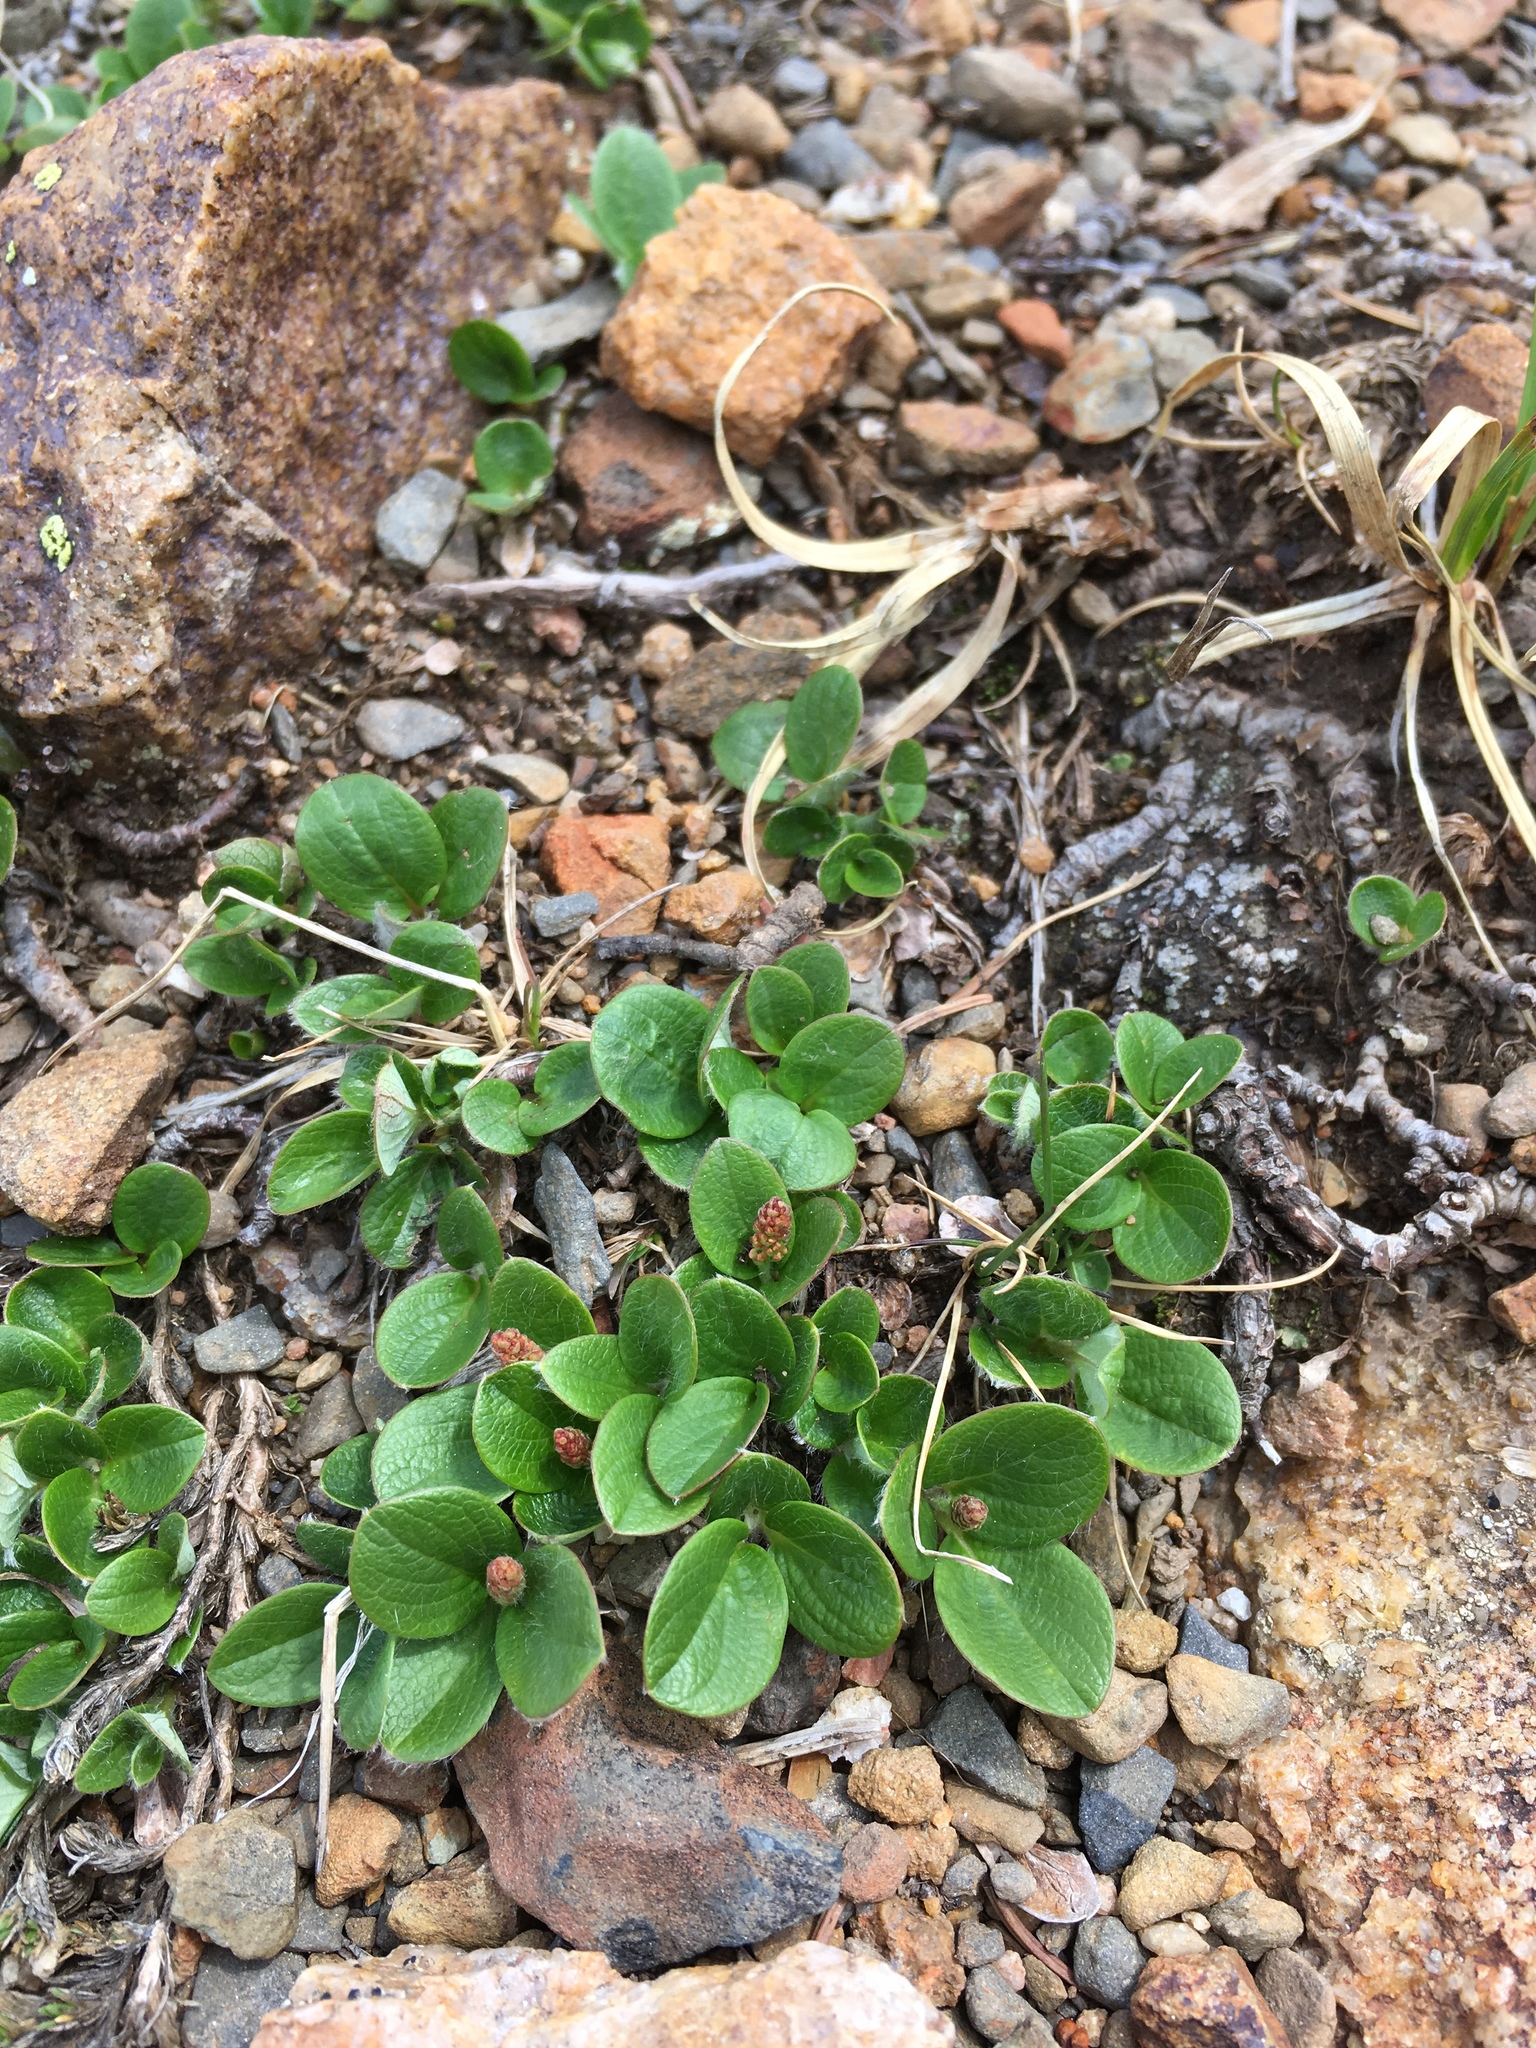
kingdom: Plantae
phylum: Tracheophyta
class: Magnoliopsida
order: Malpighiales
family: Salicaceae
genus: Salix
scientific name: Salix nivalis
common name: Dwarf snow willow
